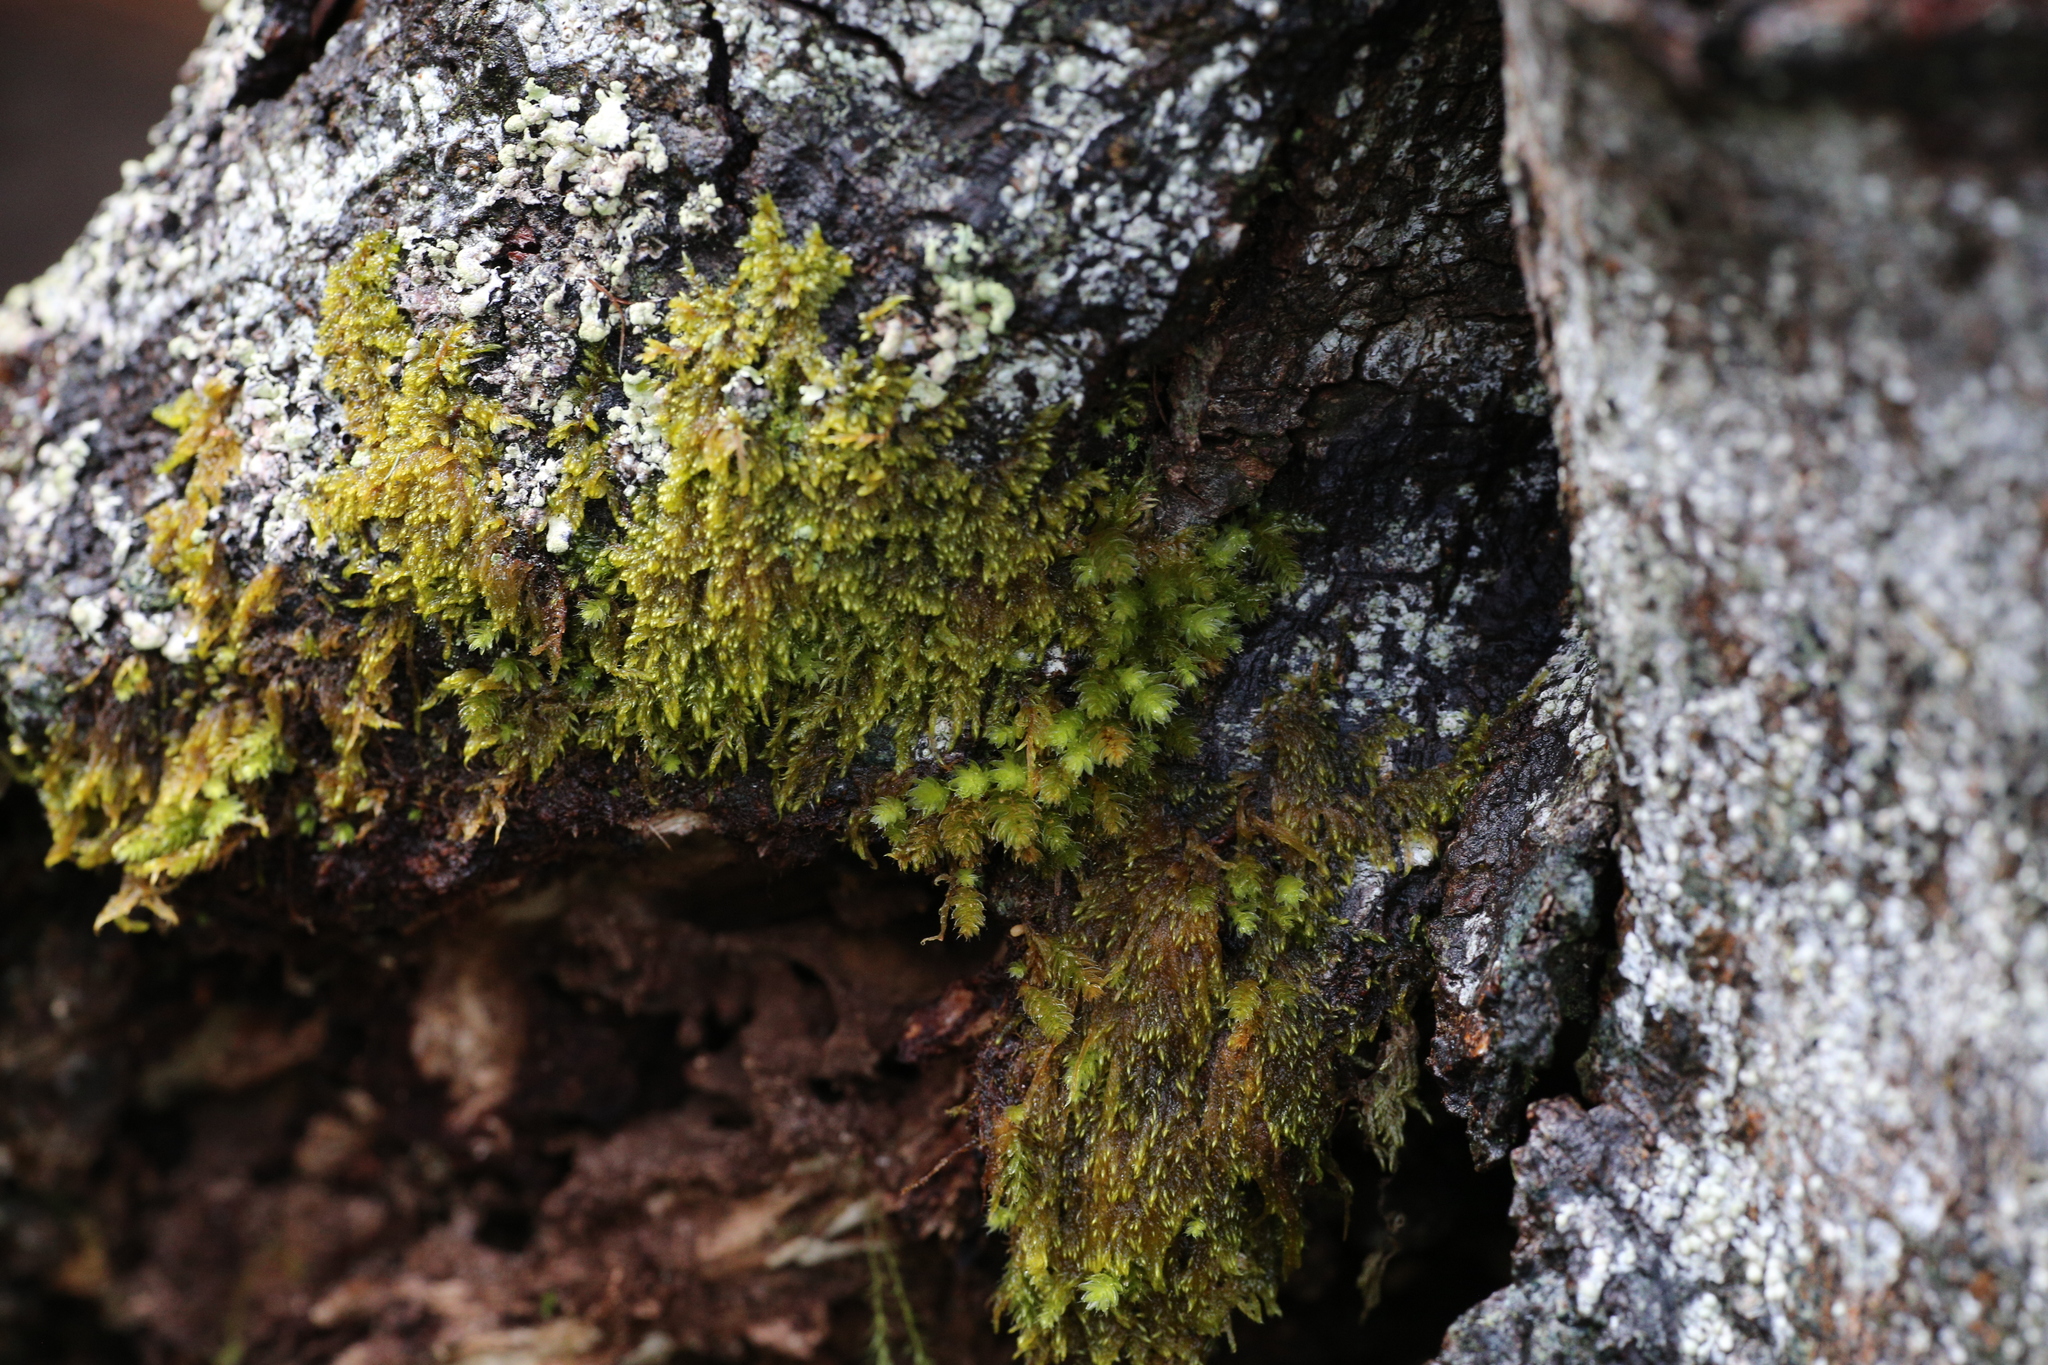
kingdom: Plantae
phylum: Bryophyta
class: Bryopsida
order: Bryales
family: Leptostomataceae
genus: Leptostomum
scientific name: Leptostomum inclinans
